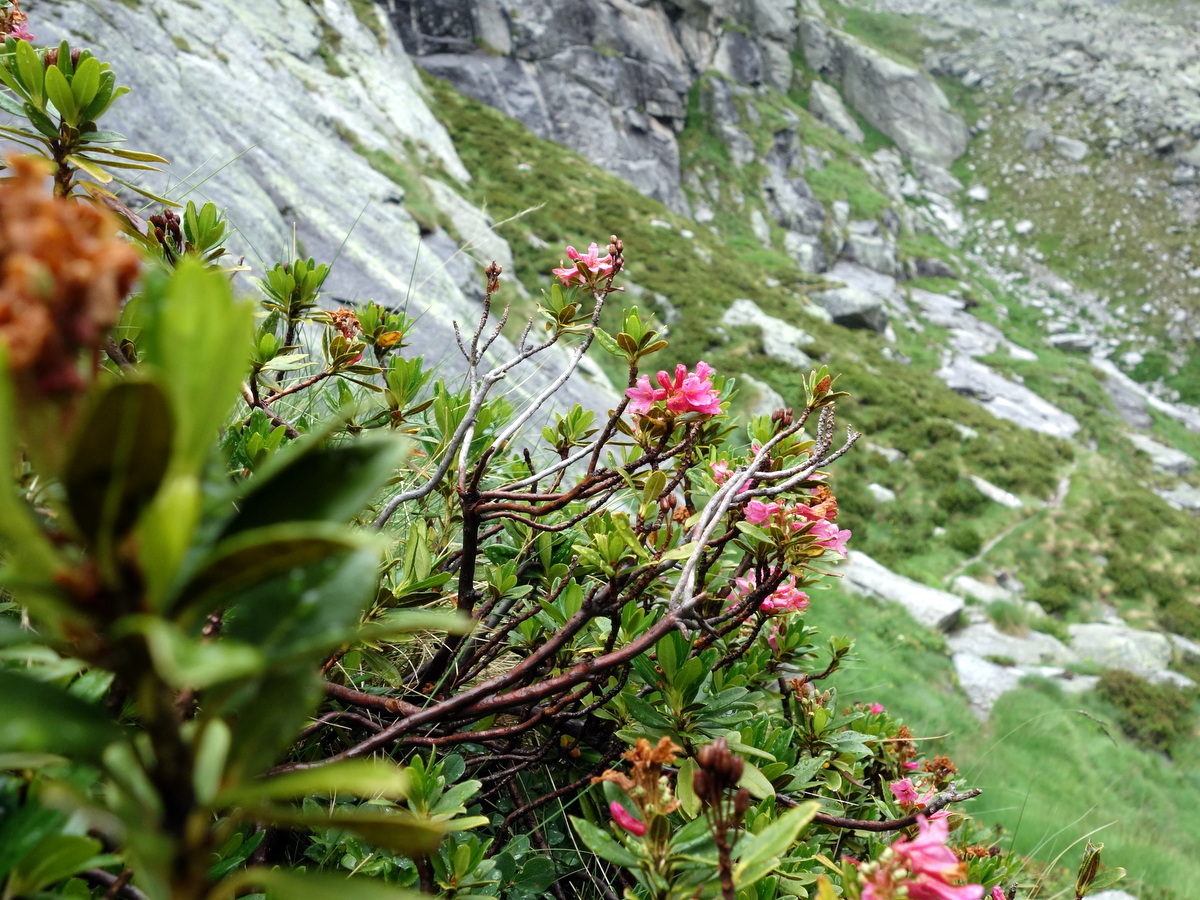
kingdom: Plantae
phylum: Tracheophyta
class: Magnoliopsida
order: Ericales
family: Ericaceae
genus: Rhododendron
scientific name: Rhododendron ferrugineum
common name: Alpenrose
